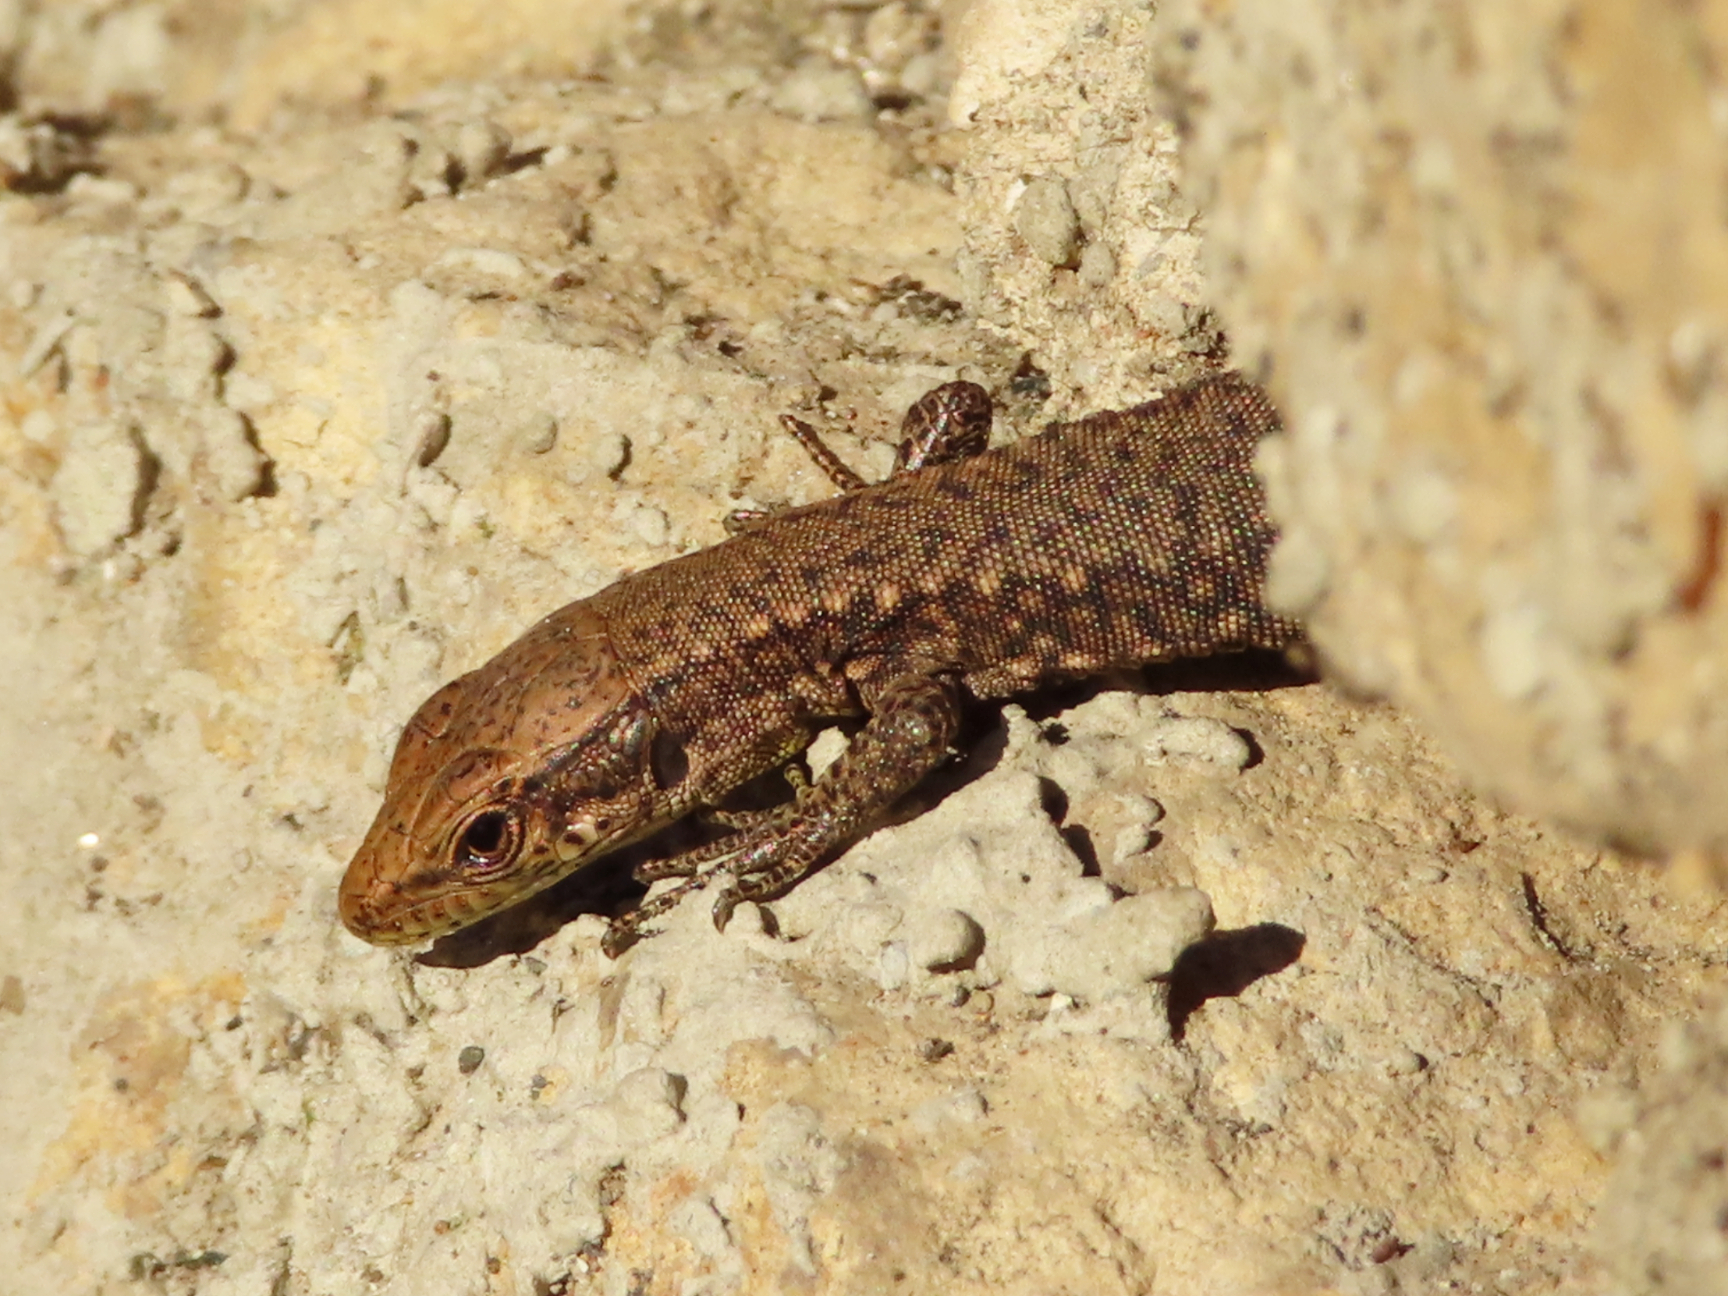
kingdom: Animalia
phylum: Chordata
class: Squamata
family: Lacertidae
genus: Darevskia
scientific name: Darevskia mixta
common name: Ajarian lizard
